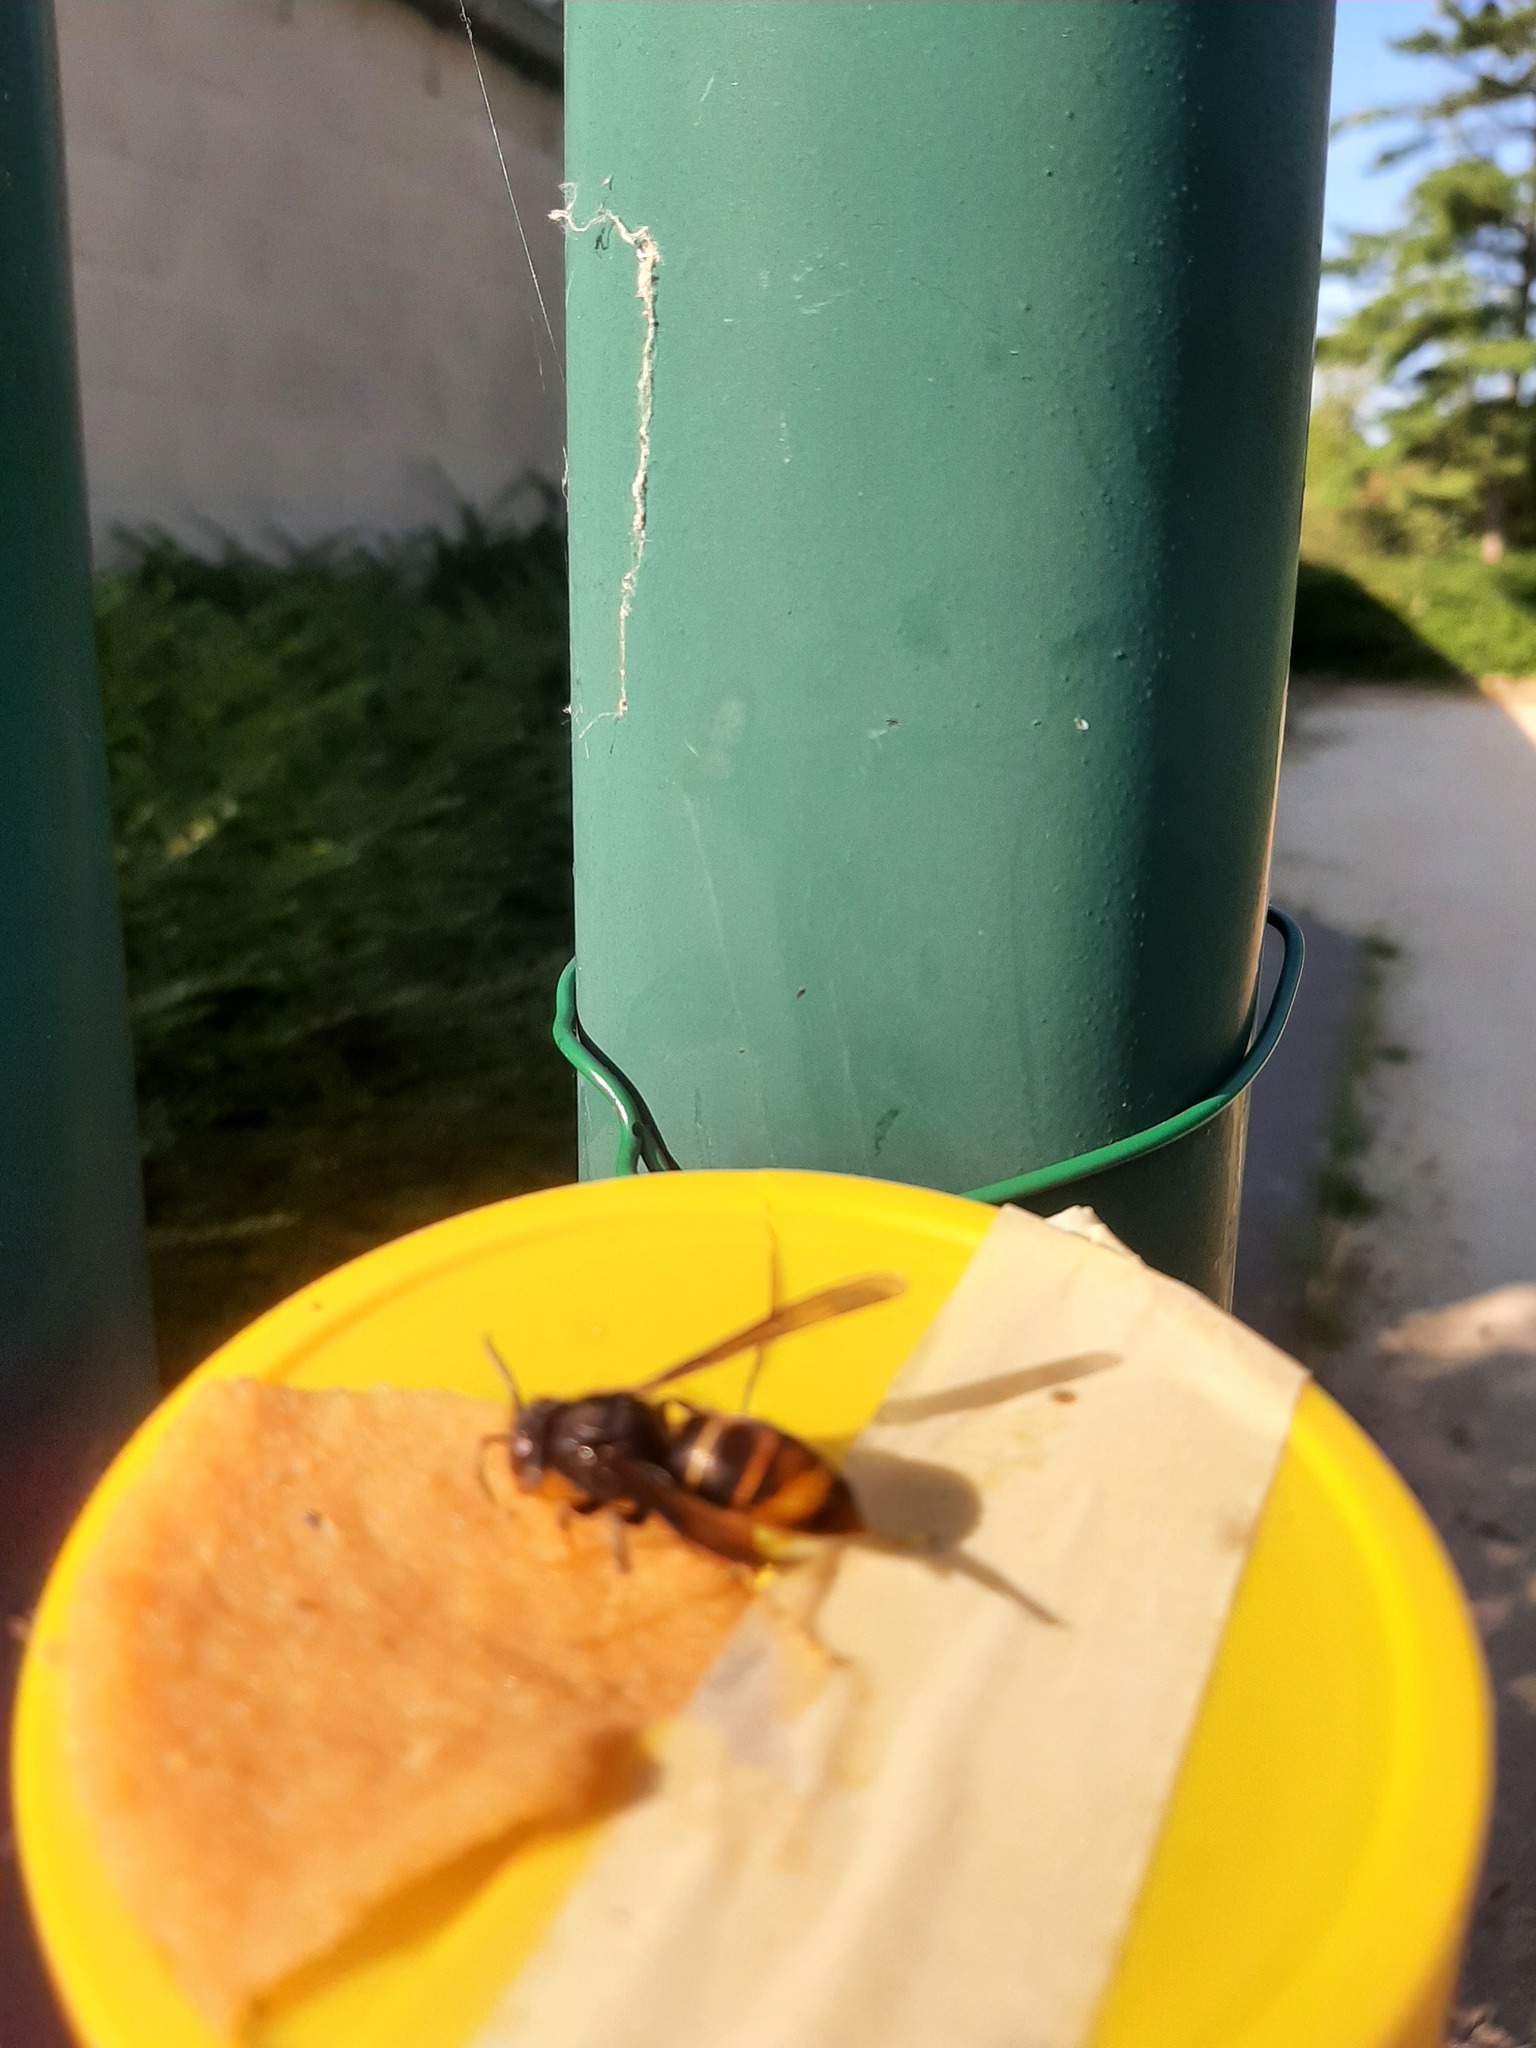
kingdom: Animalia
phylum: Arthropoda
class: Insecta
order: Hymenoptera
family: Vespidae
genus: Vespa
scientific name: Vespa velutina
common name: Asian hornet
